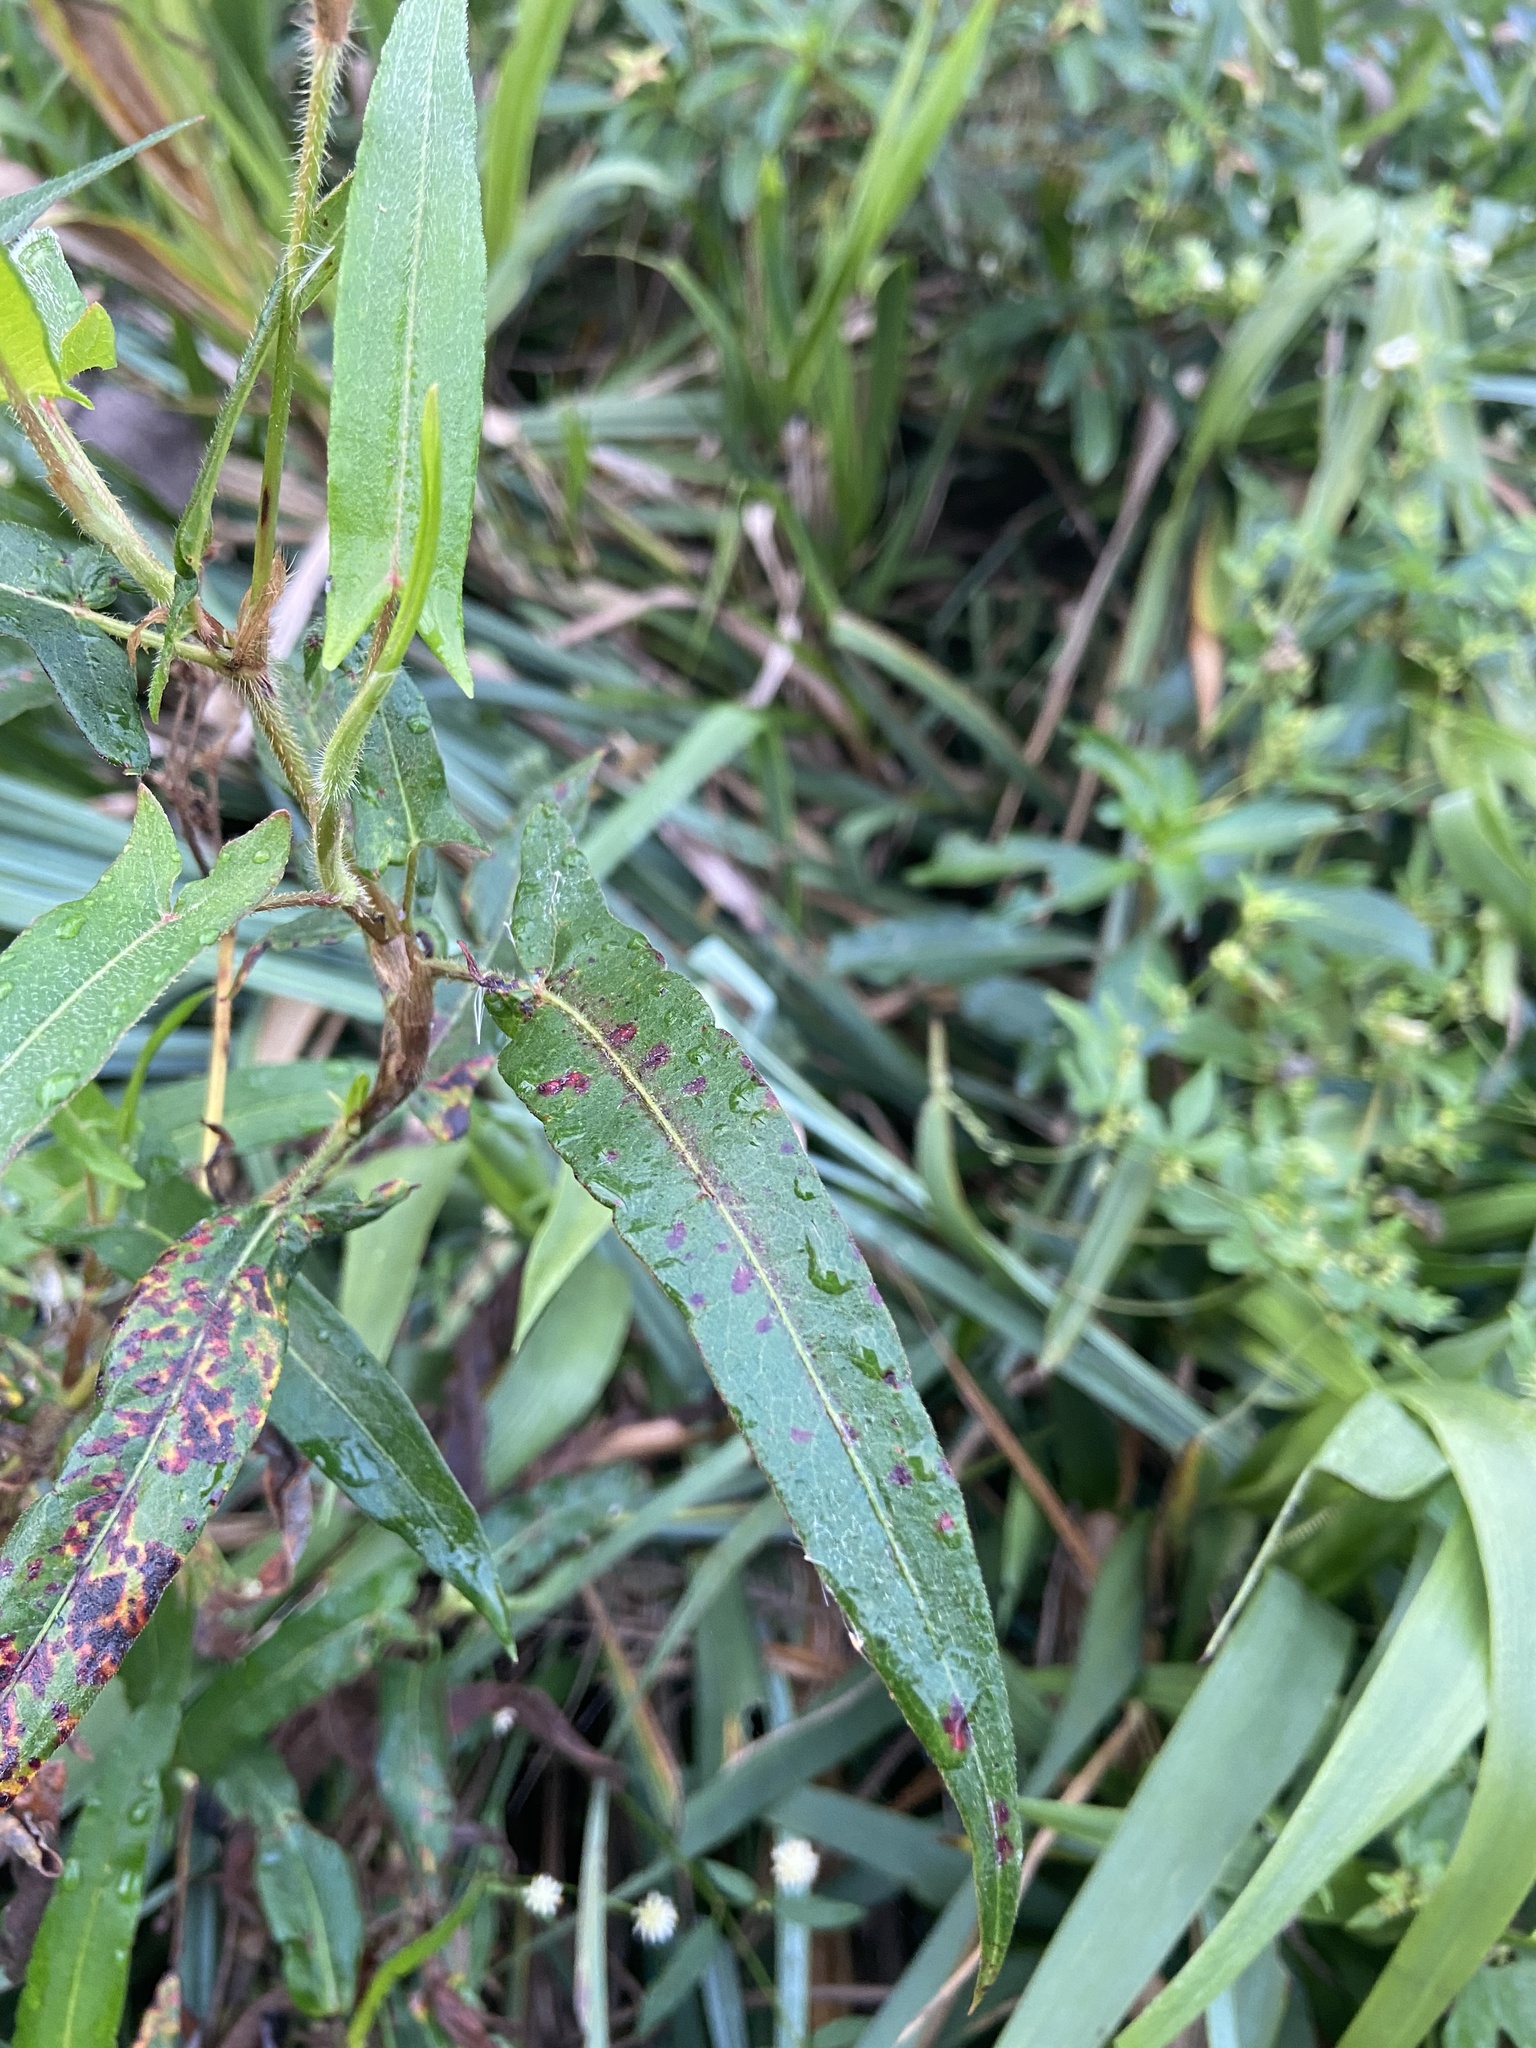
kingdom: Plantae
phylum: Tracheophyta
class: Magnoliopsida
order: Caryophyllales
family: Polygonaceae
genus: Persicaria
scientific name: Persicaria stelligera
